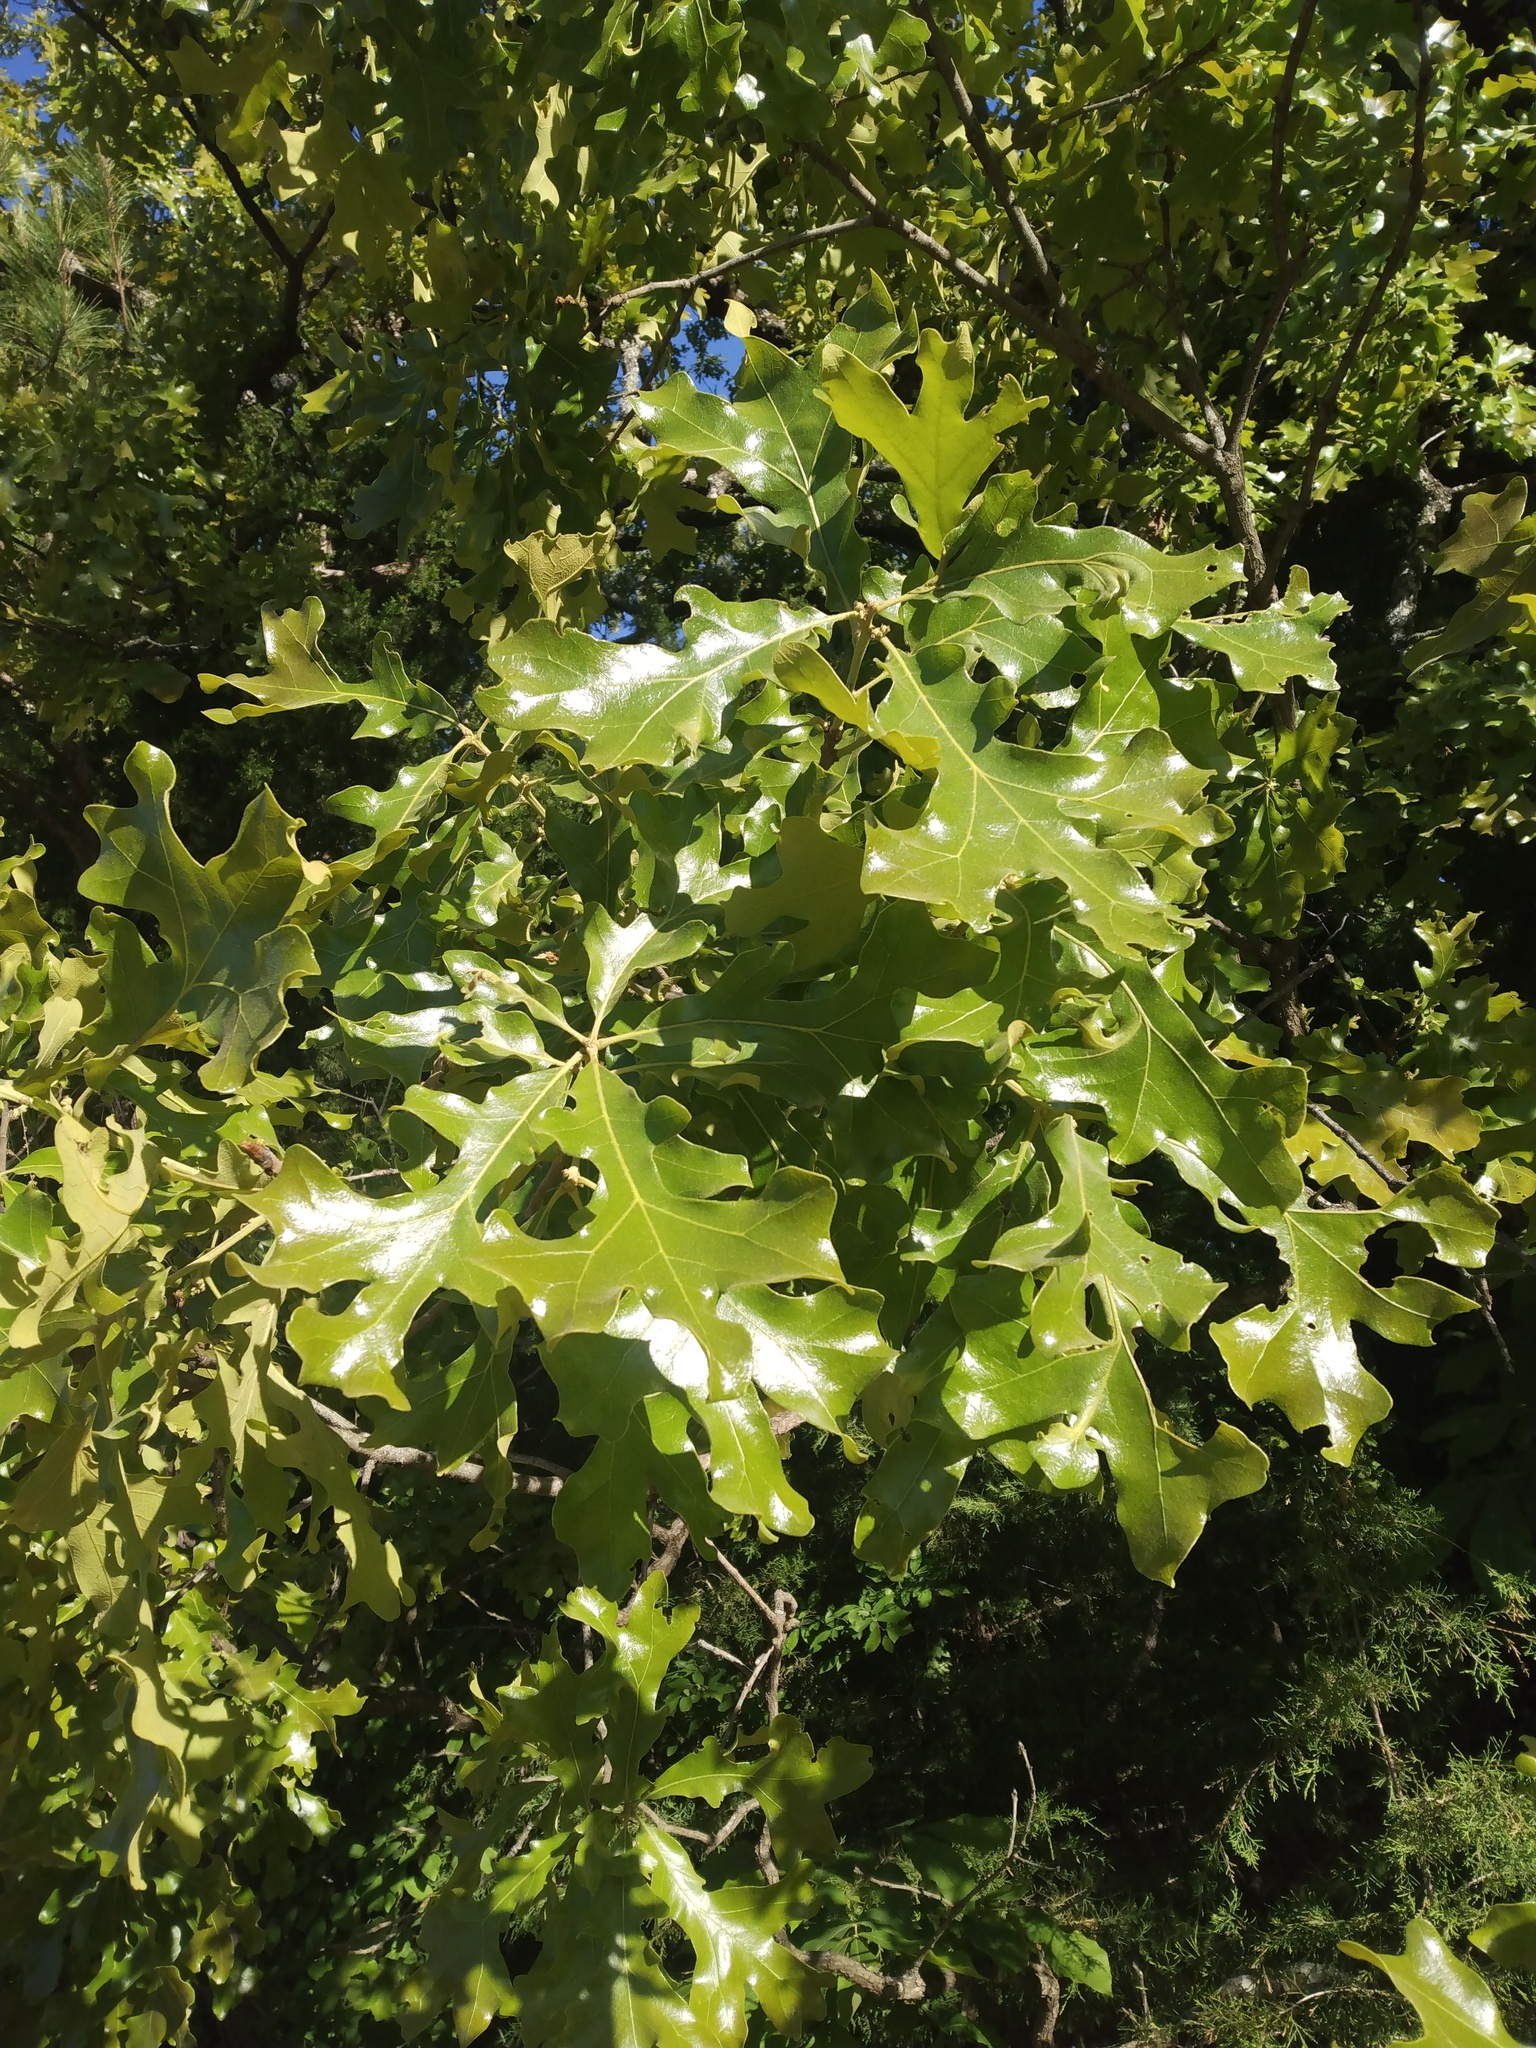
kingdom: Plantae
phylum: Tracheophyta
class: Magnoliopsida
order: Fagales
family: Fagaceae
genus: Quercus
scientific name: Quercus macrocarpa
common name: Bur oak
